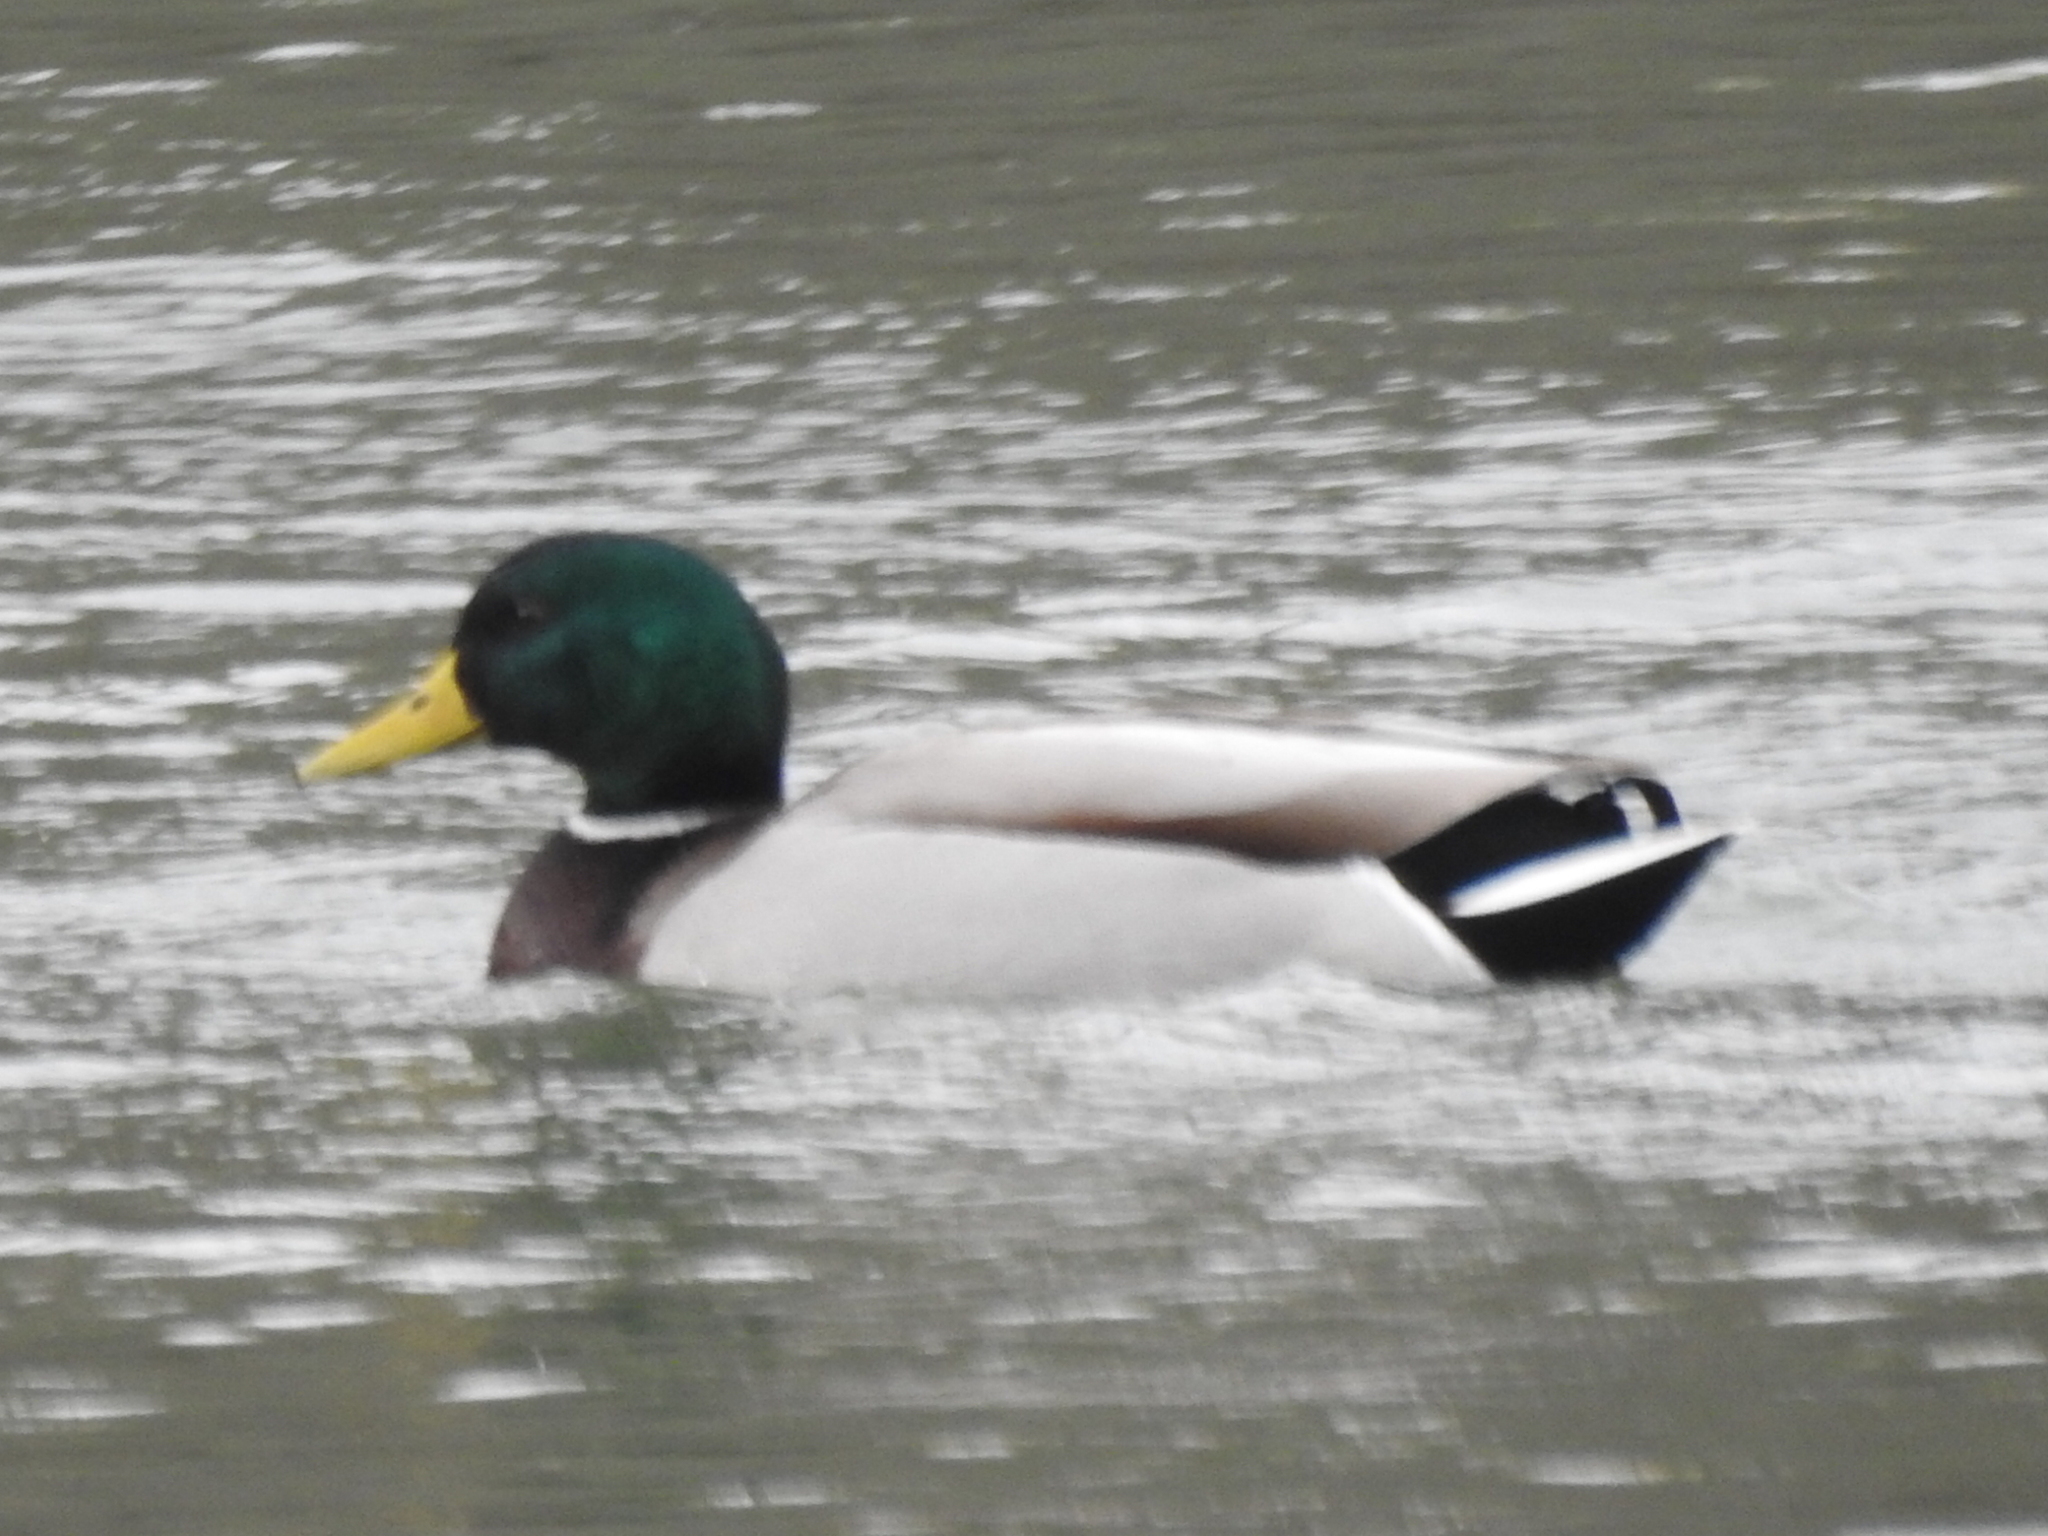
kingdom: Animalia
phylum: Chordata
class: Aves
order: Anseriformes
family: Anatidae
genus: Anas
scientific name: Anas platyrhynchos
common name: Mallard
